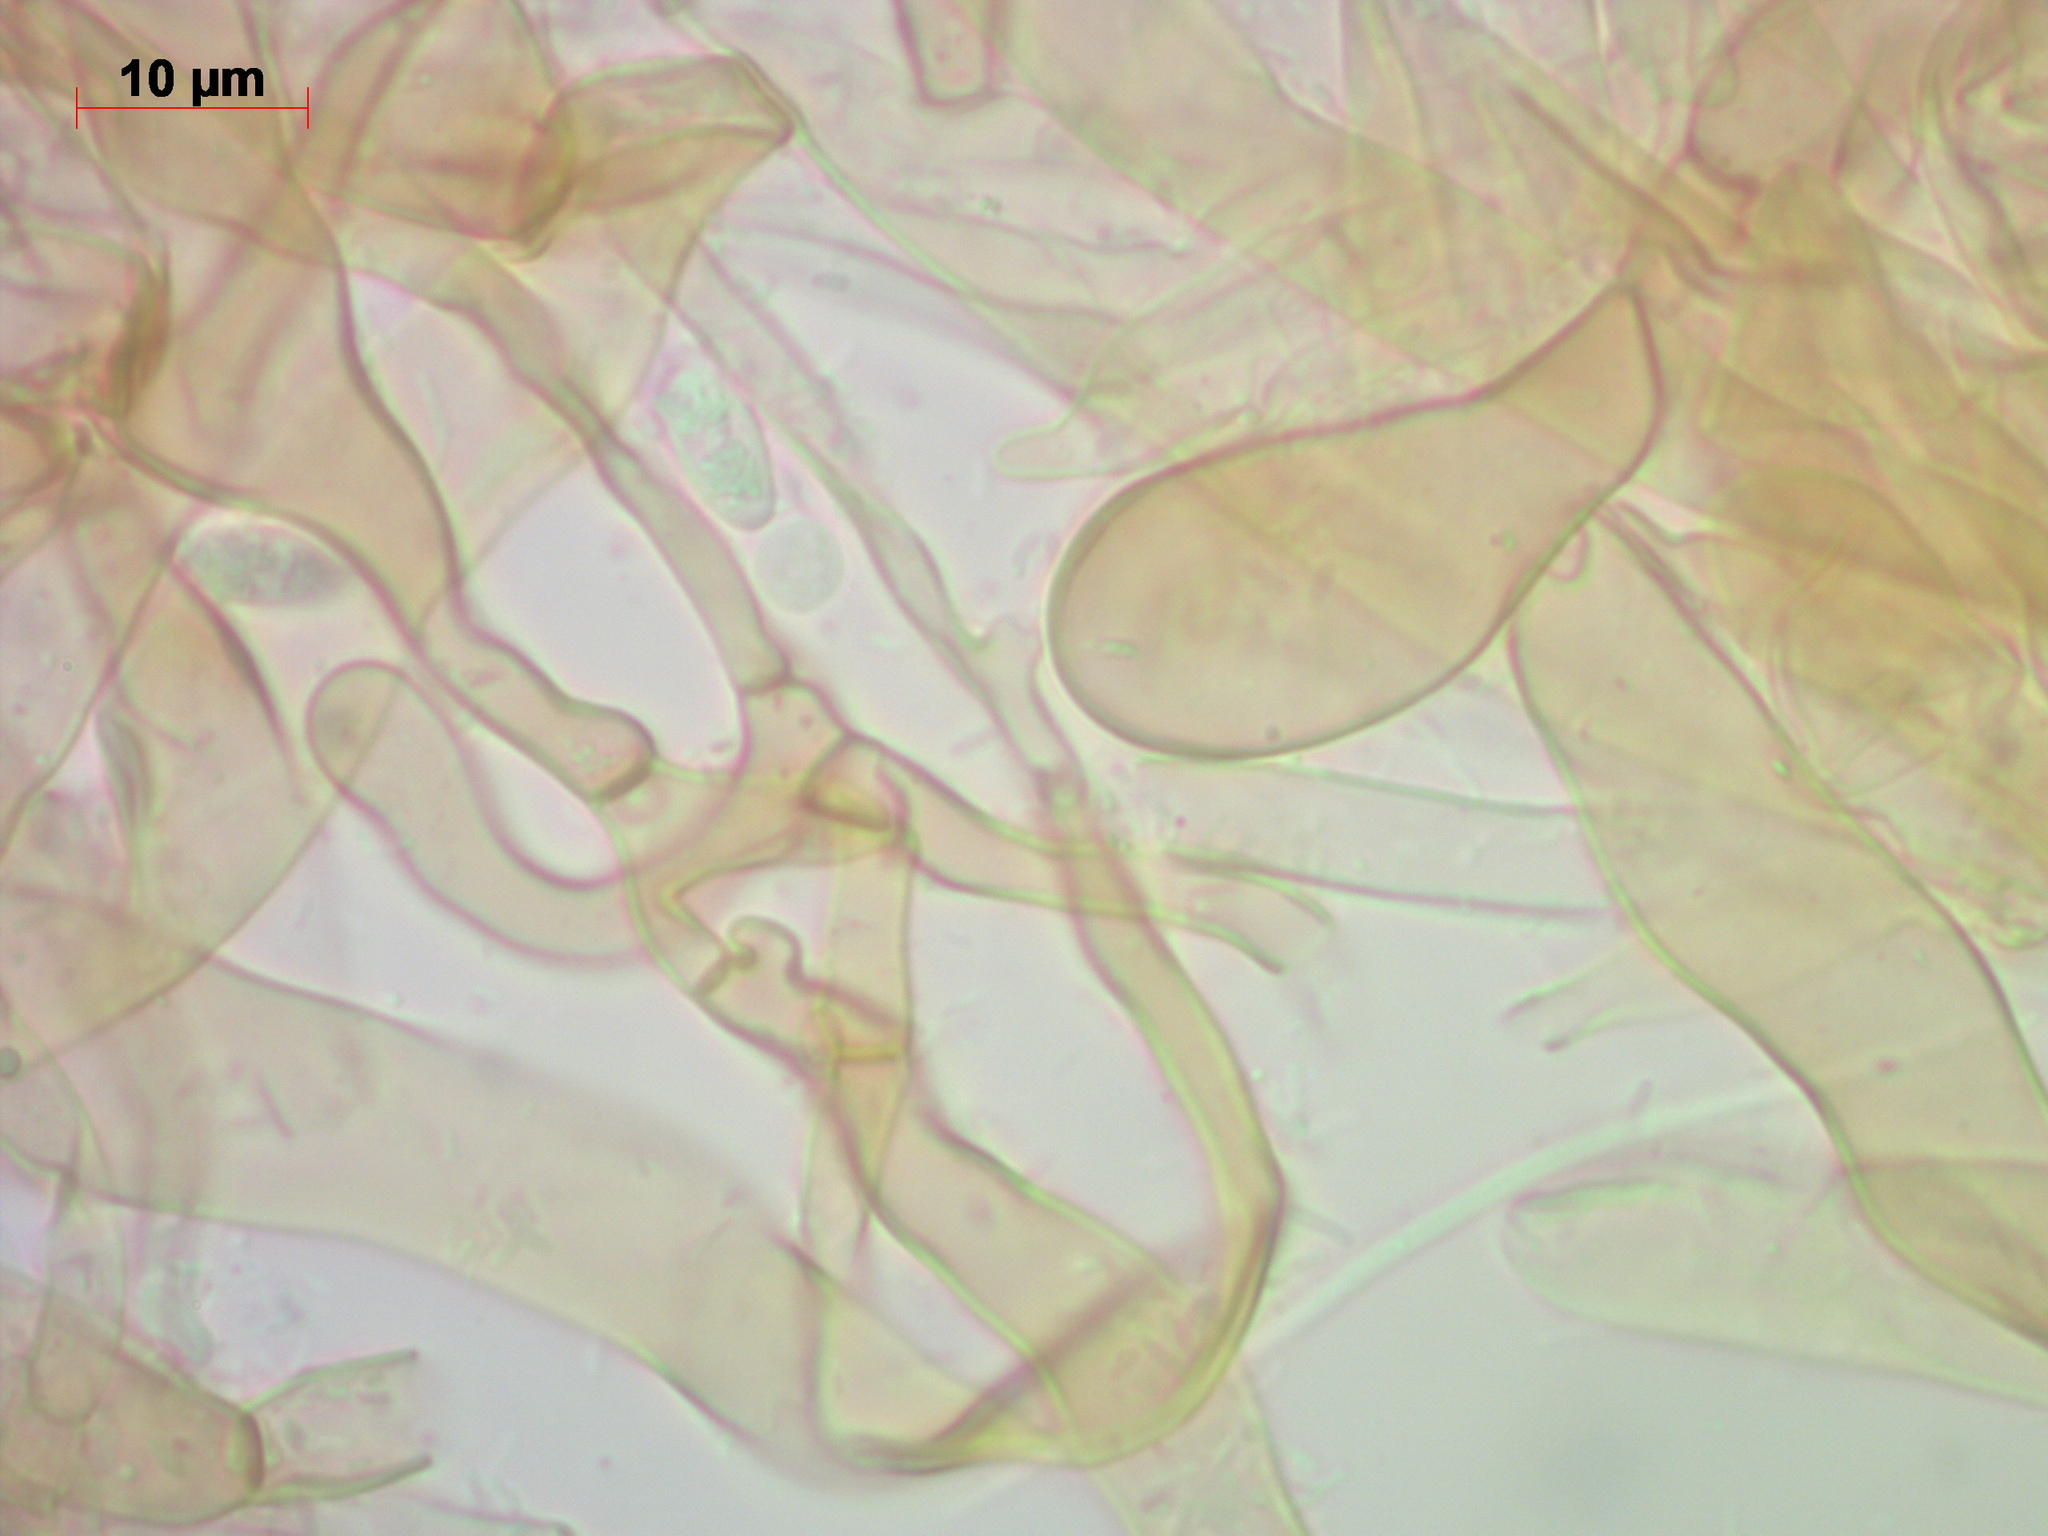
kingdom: Fungi
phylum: Basidiomycota
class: Agaricomycetes
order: Agaricales
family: Agaricaceae
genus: Lepiota
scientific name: Lepiota boudieri
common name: Girdled dapperling
